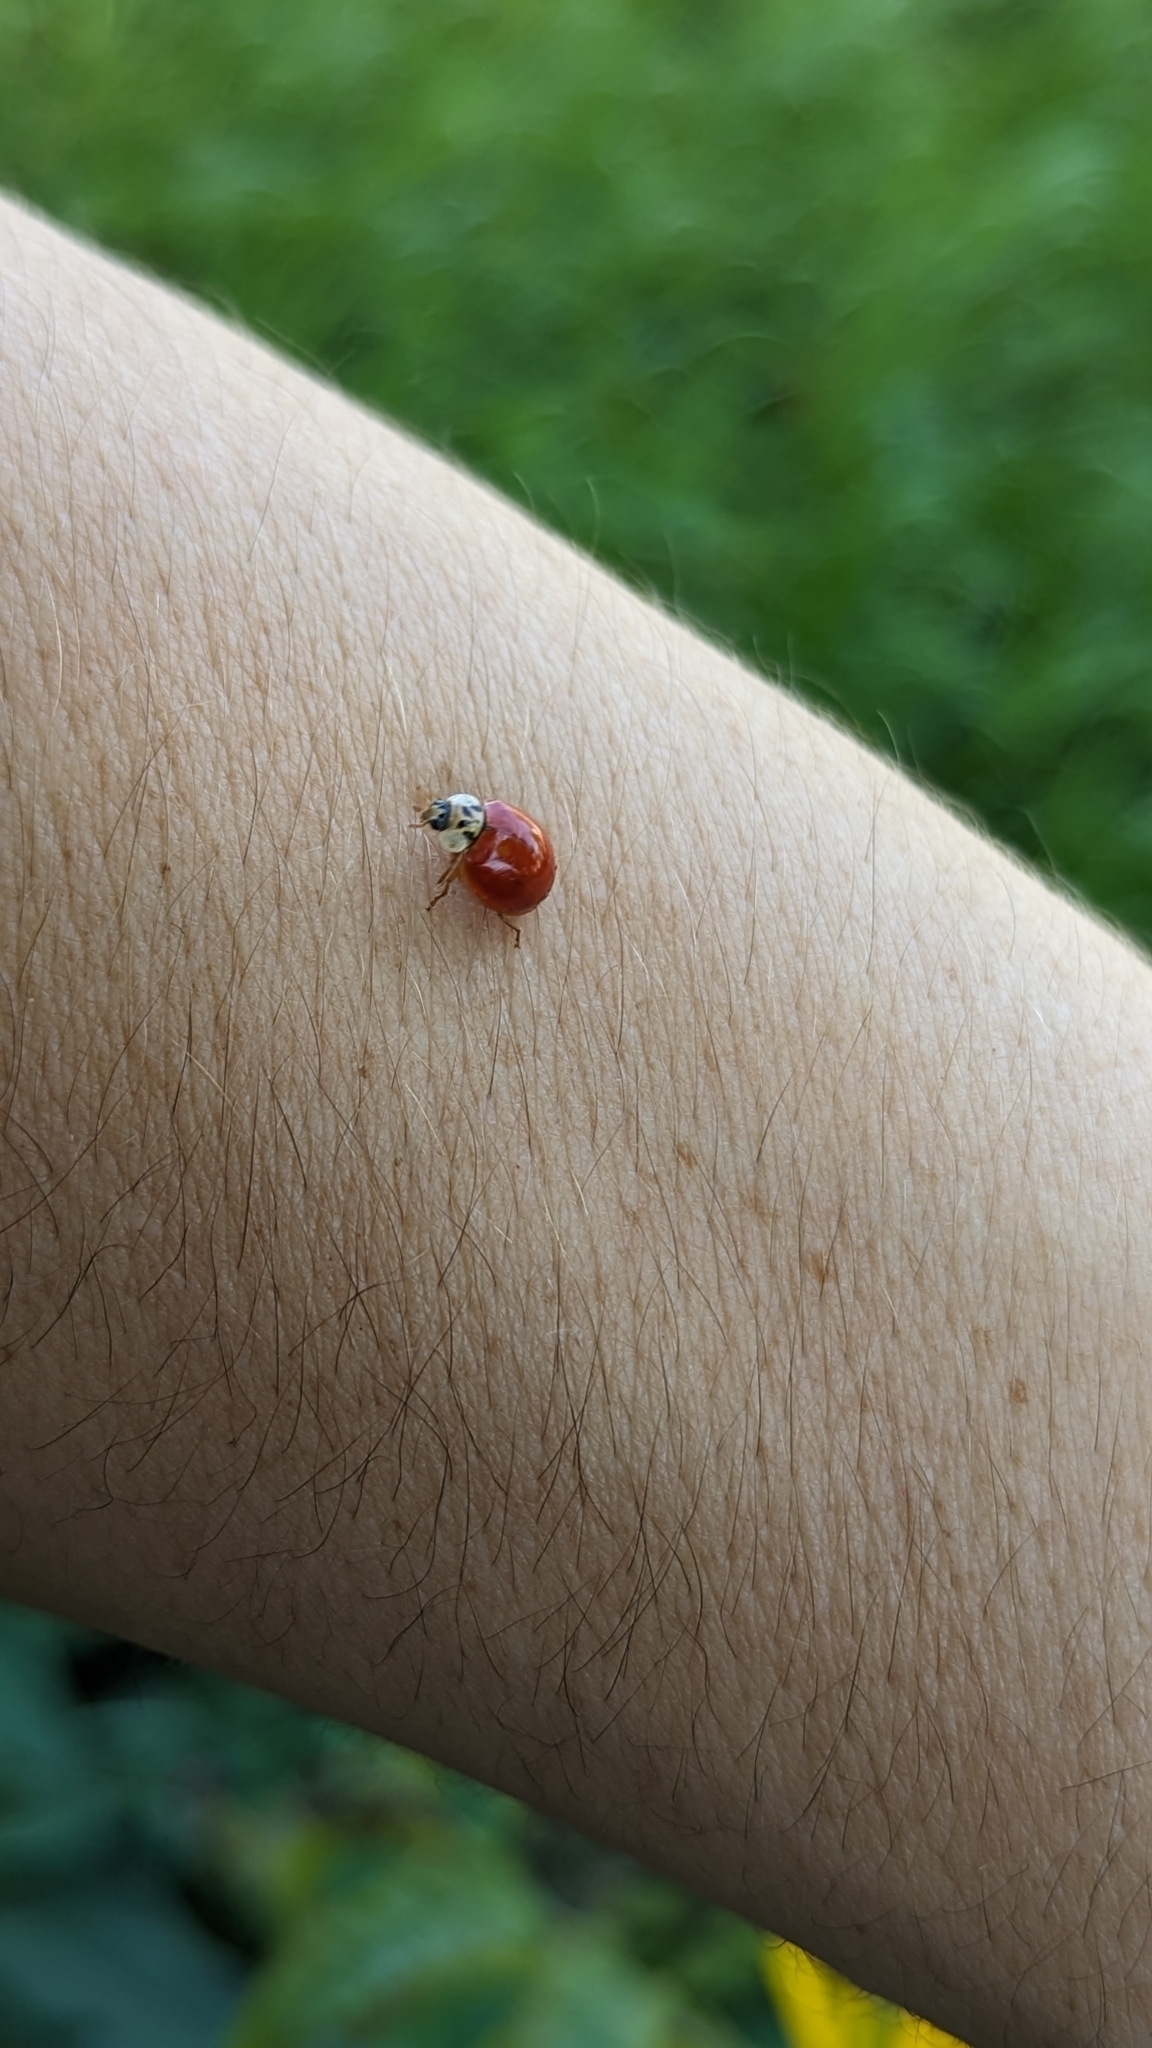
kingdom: Animalia
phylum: Arthropoda
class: Insecta
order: Coleoptera
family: Coccinellidae
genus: Harmonia
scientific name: Harmonia axyridis
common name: Harlequin ladybird
